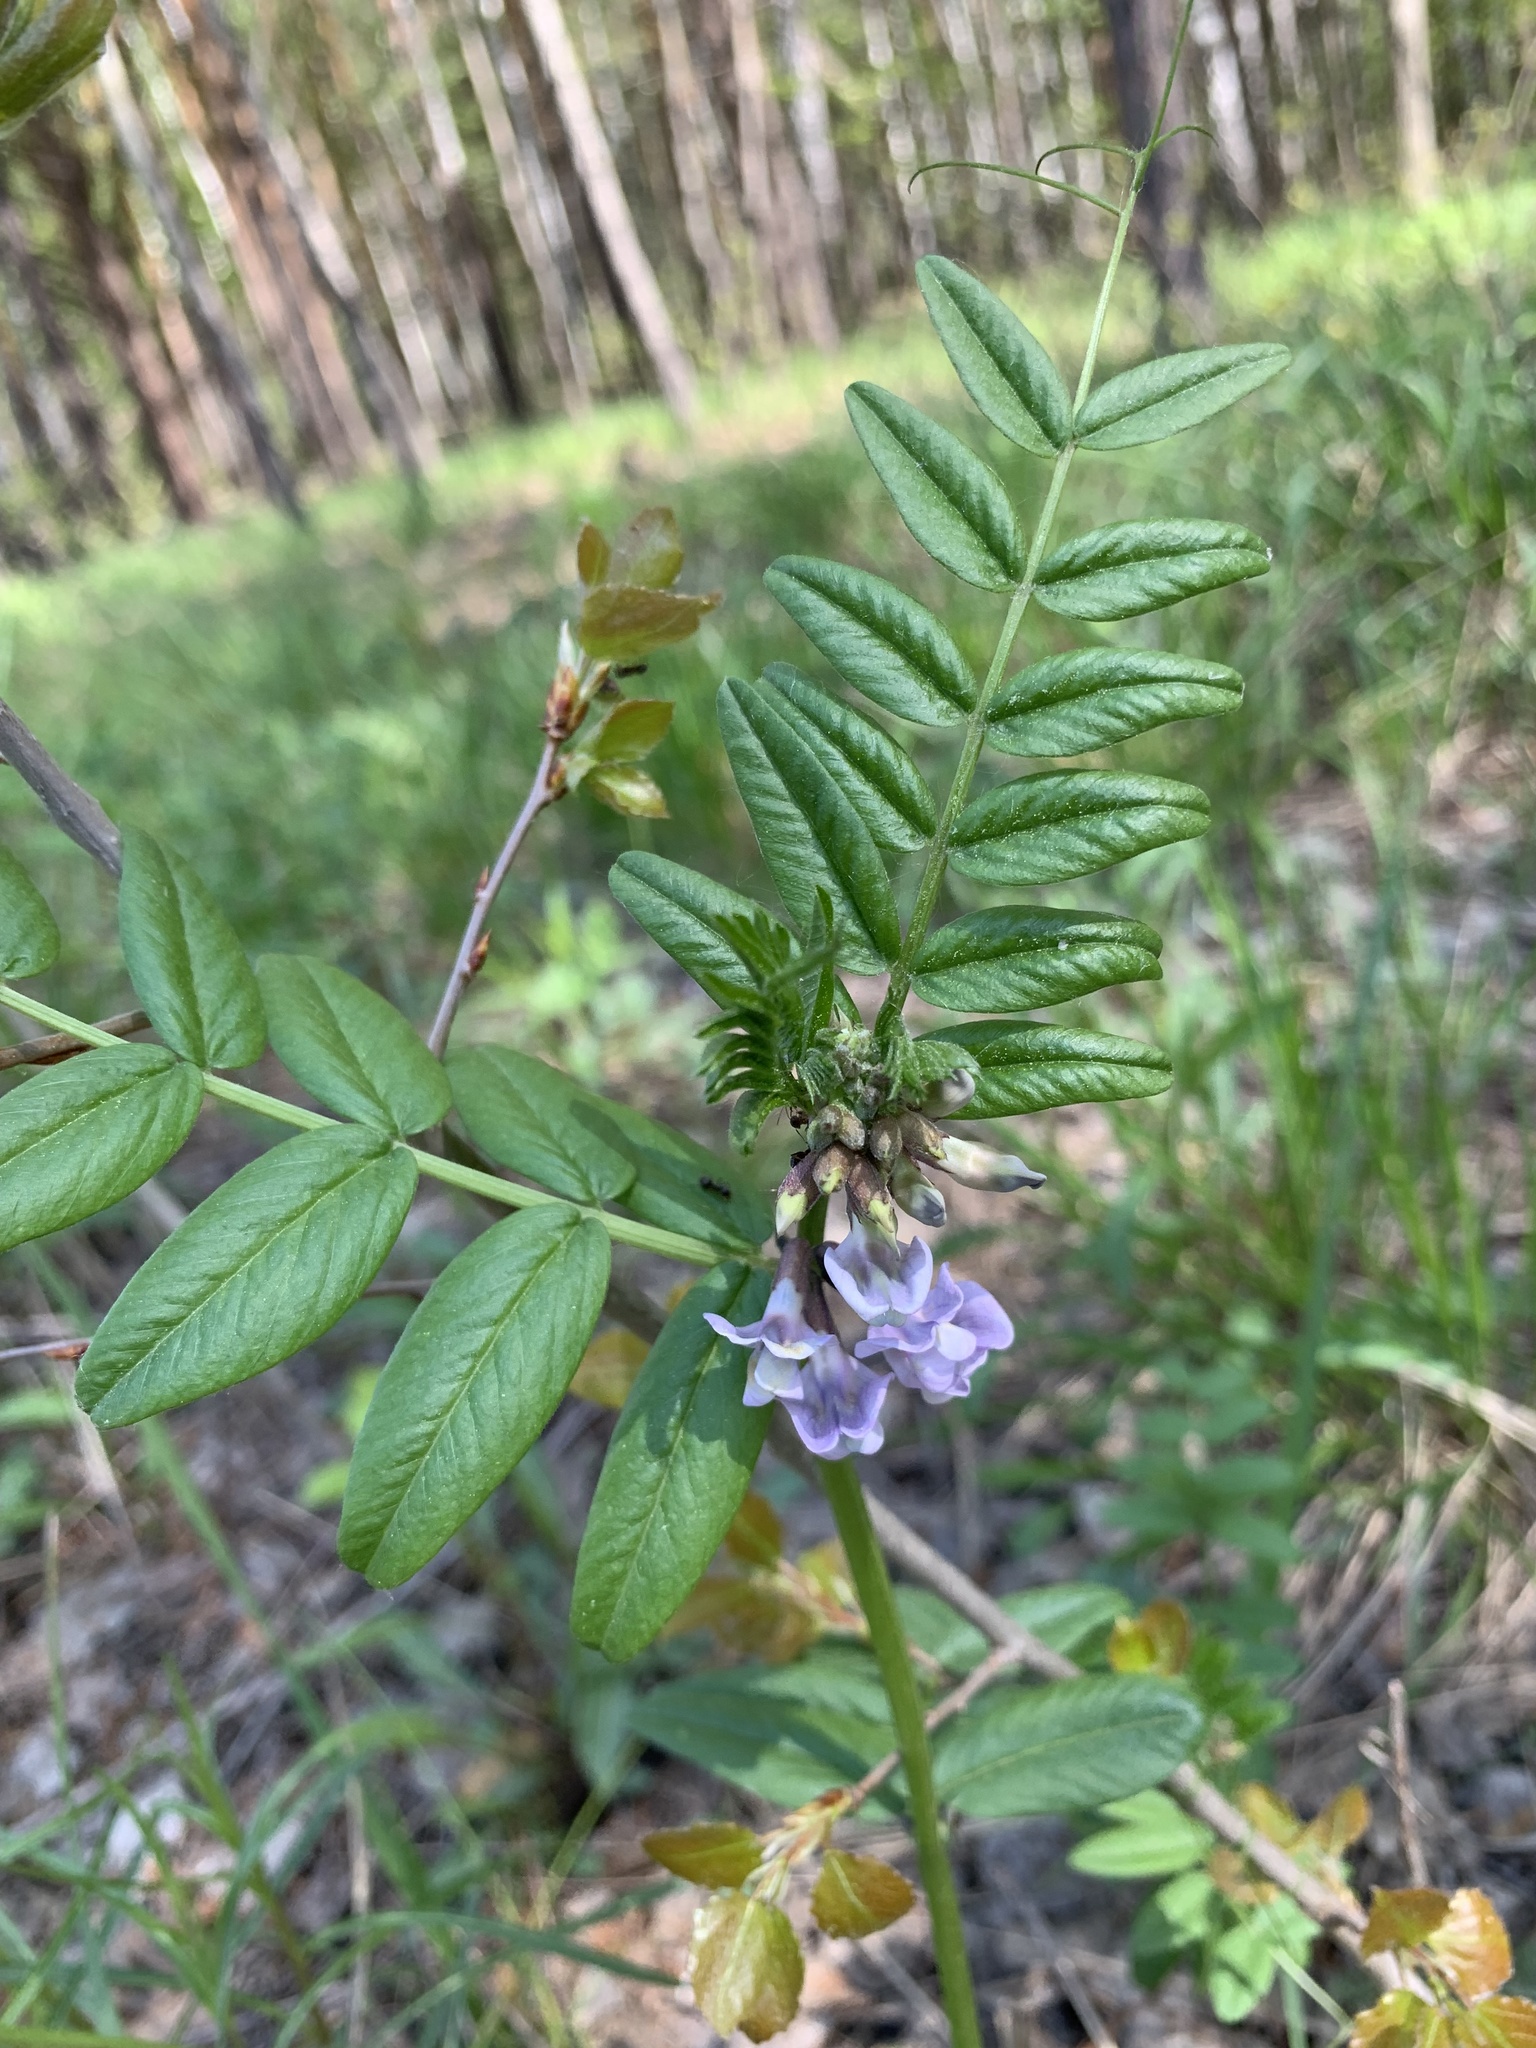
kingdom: Plantae
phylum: Tracheophyta
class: Magnoliopsida
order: Fabales
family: Fabaceae
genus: Vicia
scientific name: Vicia sepium
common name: Bush vetch
